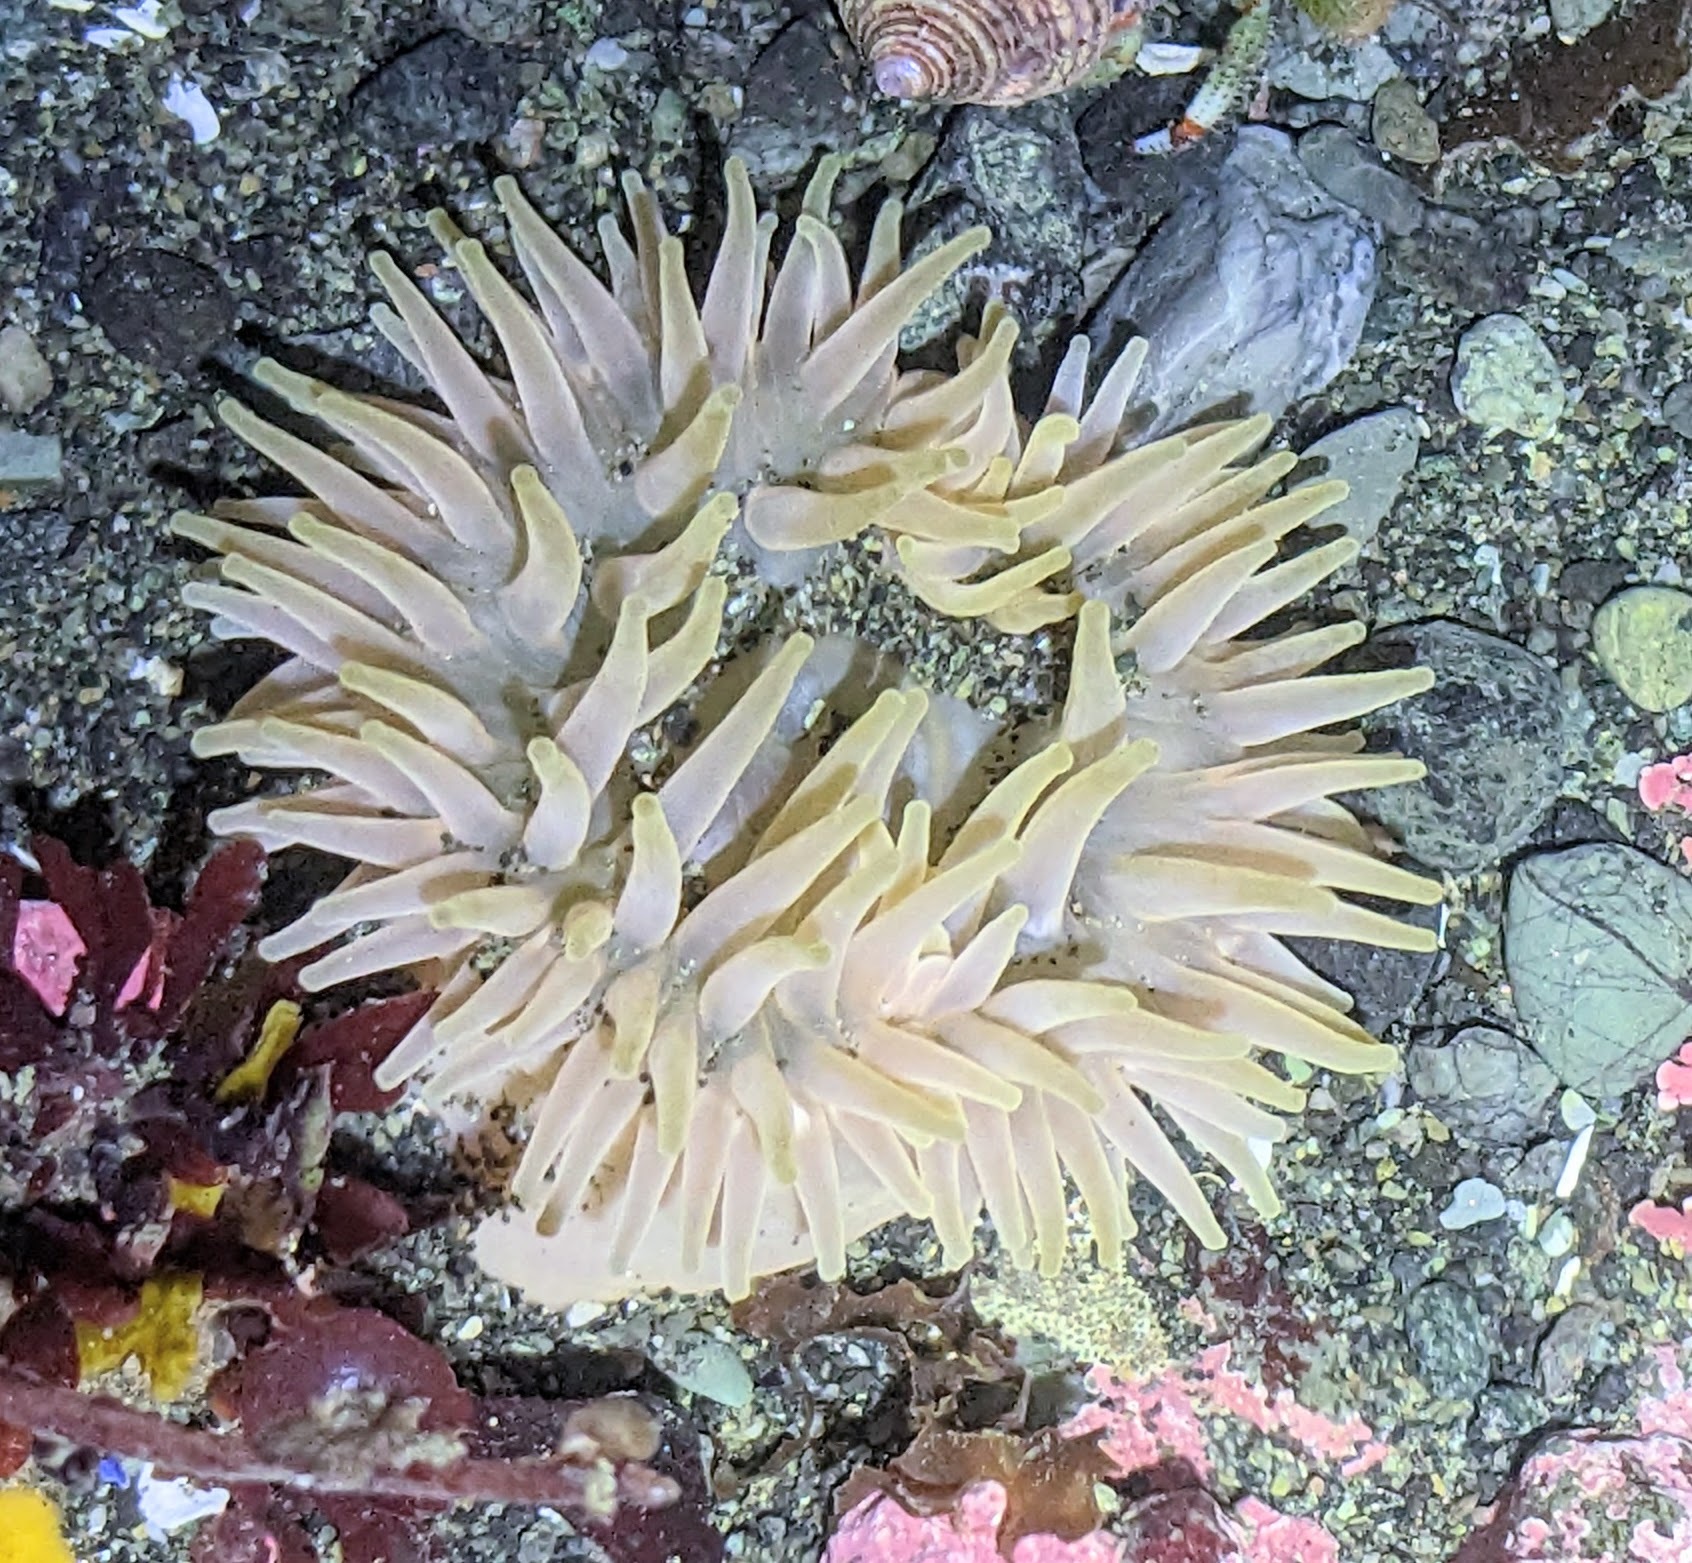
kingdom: Animalia
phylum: Cnidaria
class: Anthozoa
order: Actiniaria
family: Actiniidae
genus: Urticina
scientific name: Urticina grebelnyi
